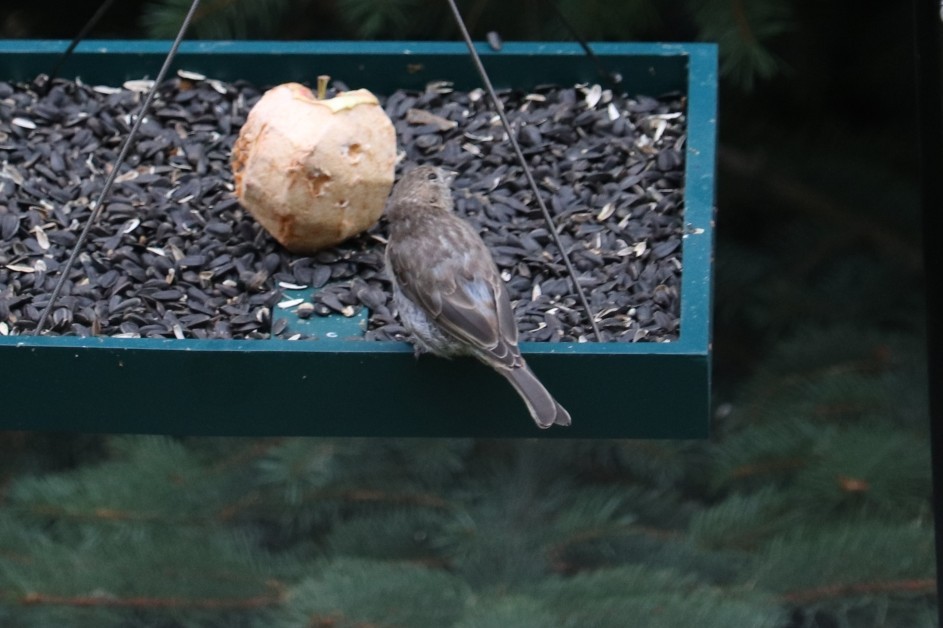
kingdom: Animalia
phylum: Chordata
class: Aves
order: Passeriformes
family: Fringillidae
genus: Haemorhous
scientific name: Haemorhous mexicanus
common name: House finch
